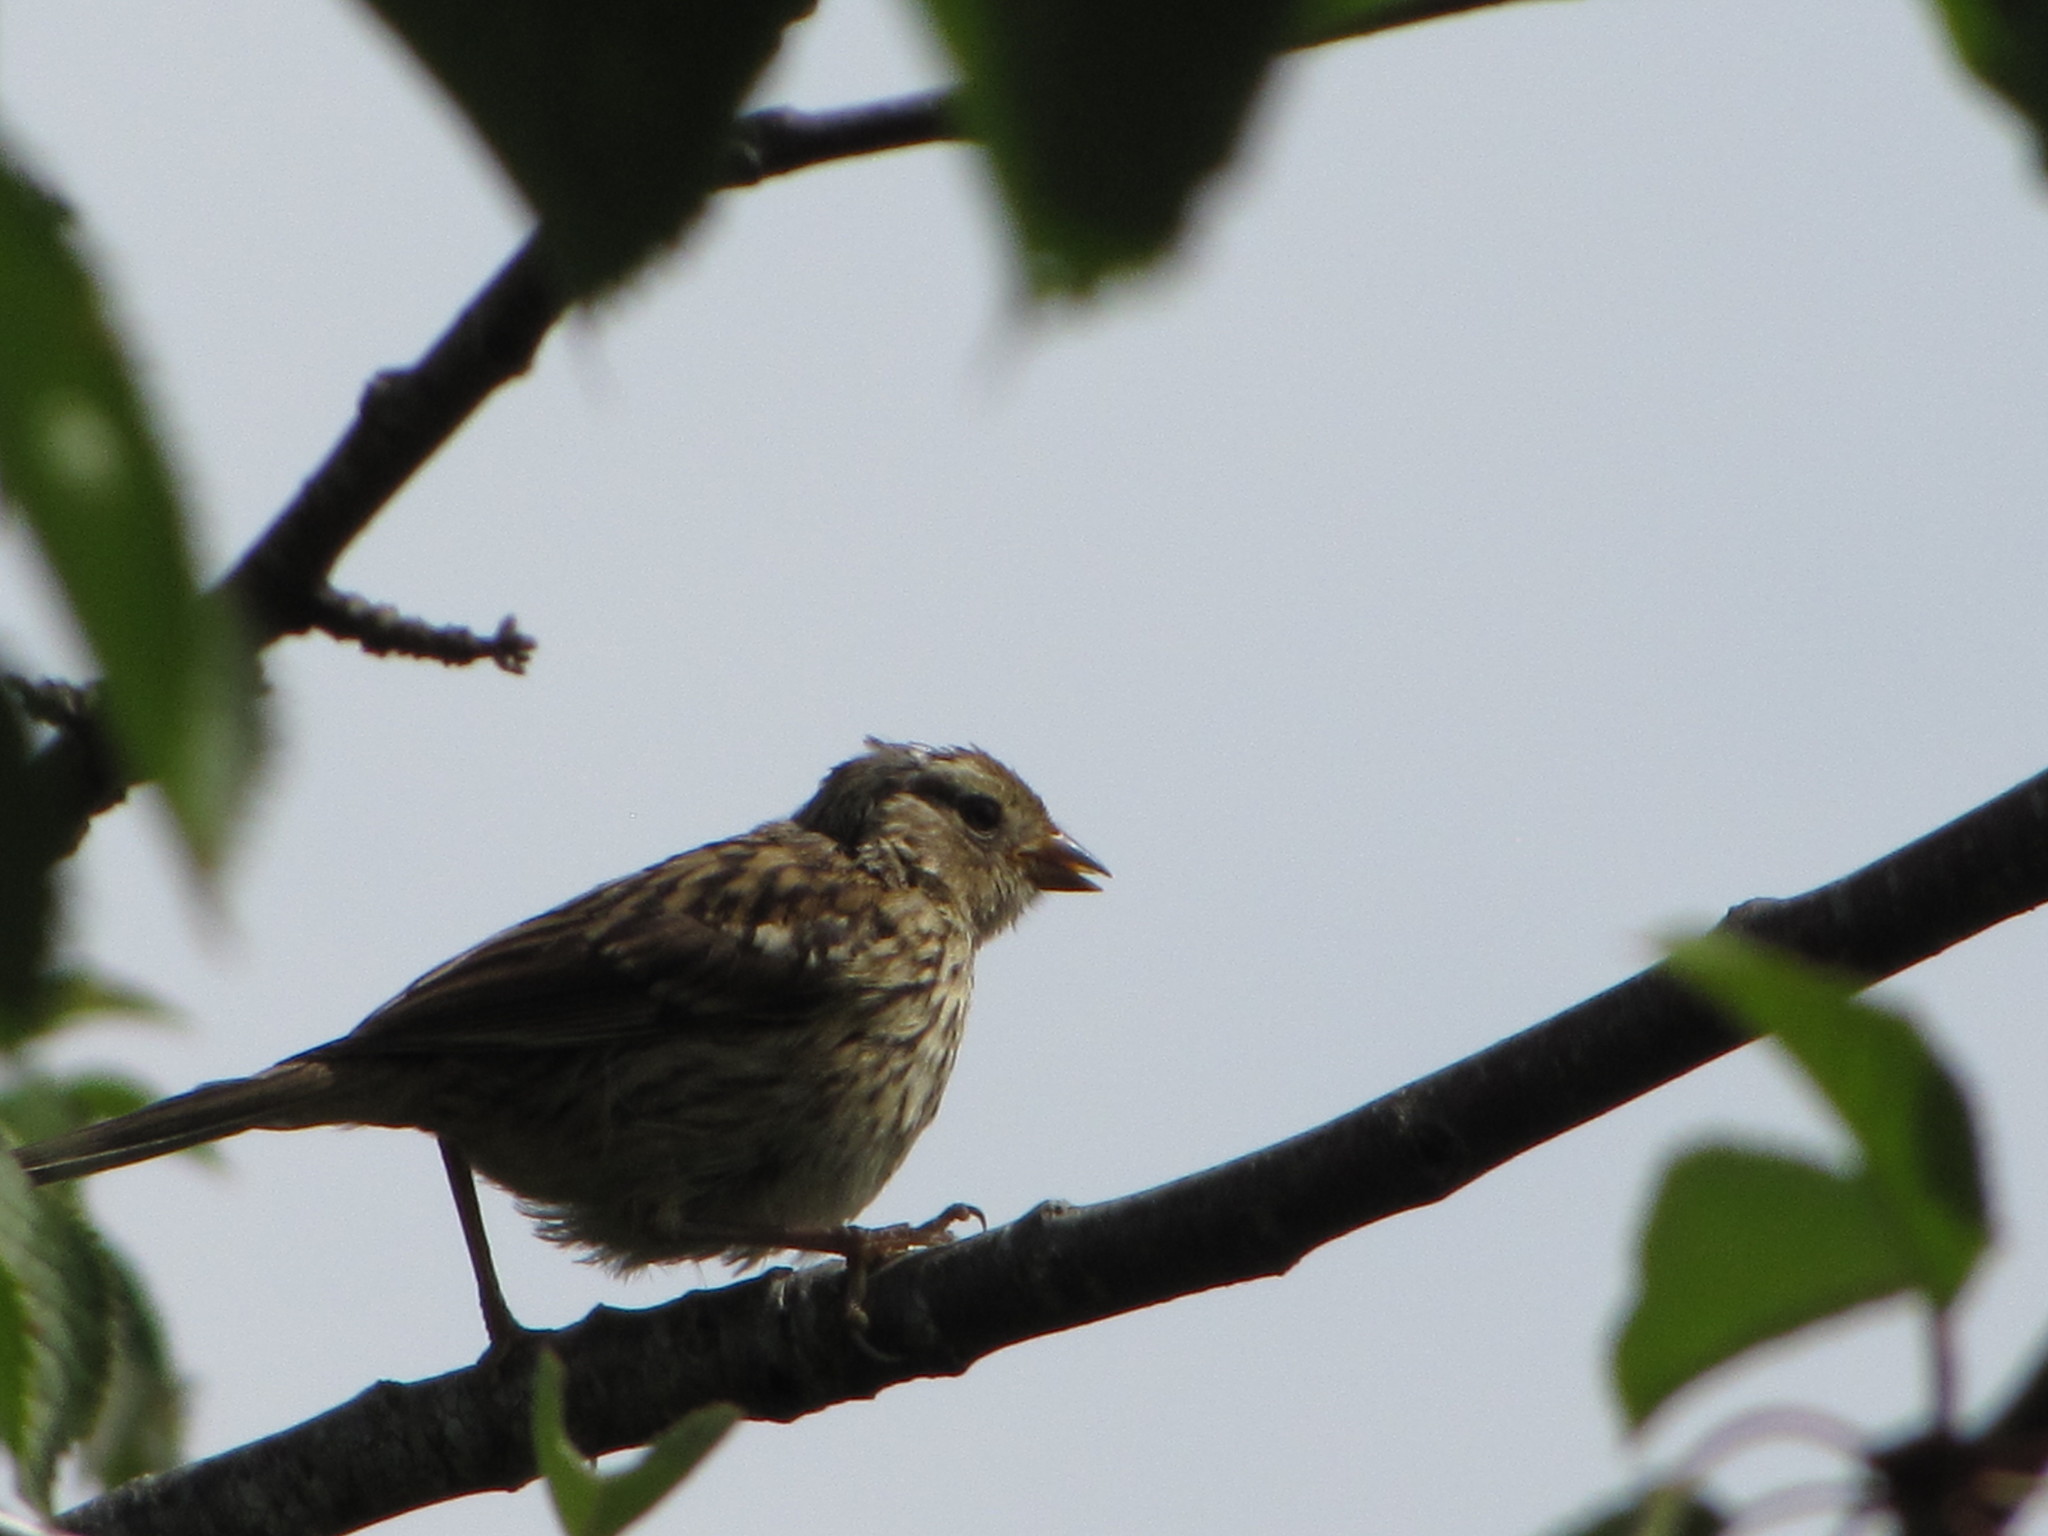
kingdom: Animalia
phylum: Chordata
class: Aves
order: Passeriformes
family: Passerellidae
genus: Zonotrichia
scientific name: Zonotrichia leucophrys
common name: White-crowned sparrow
